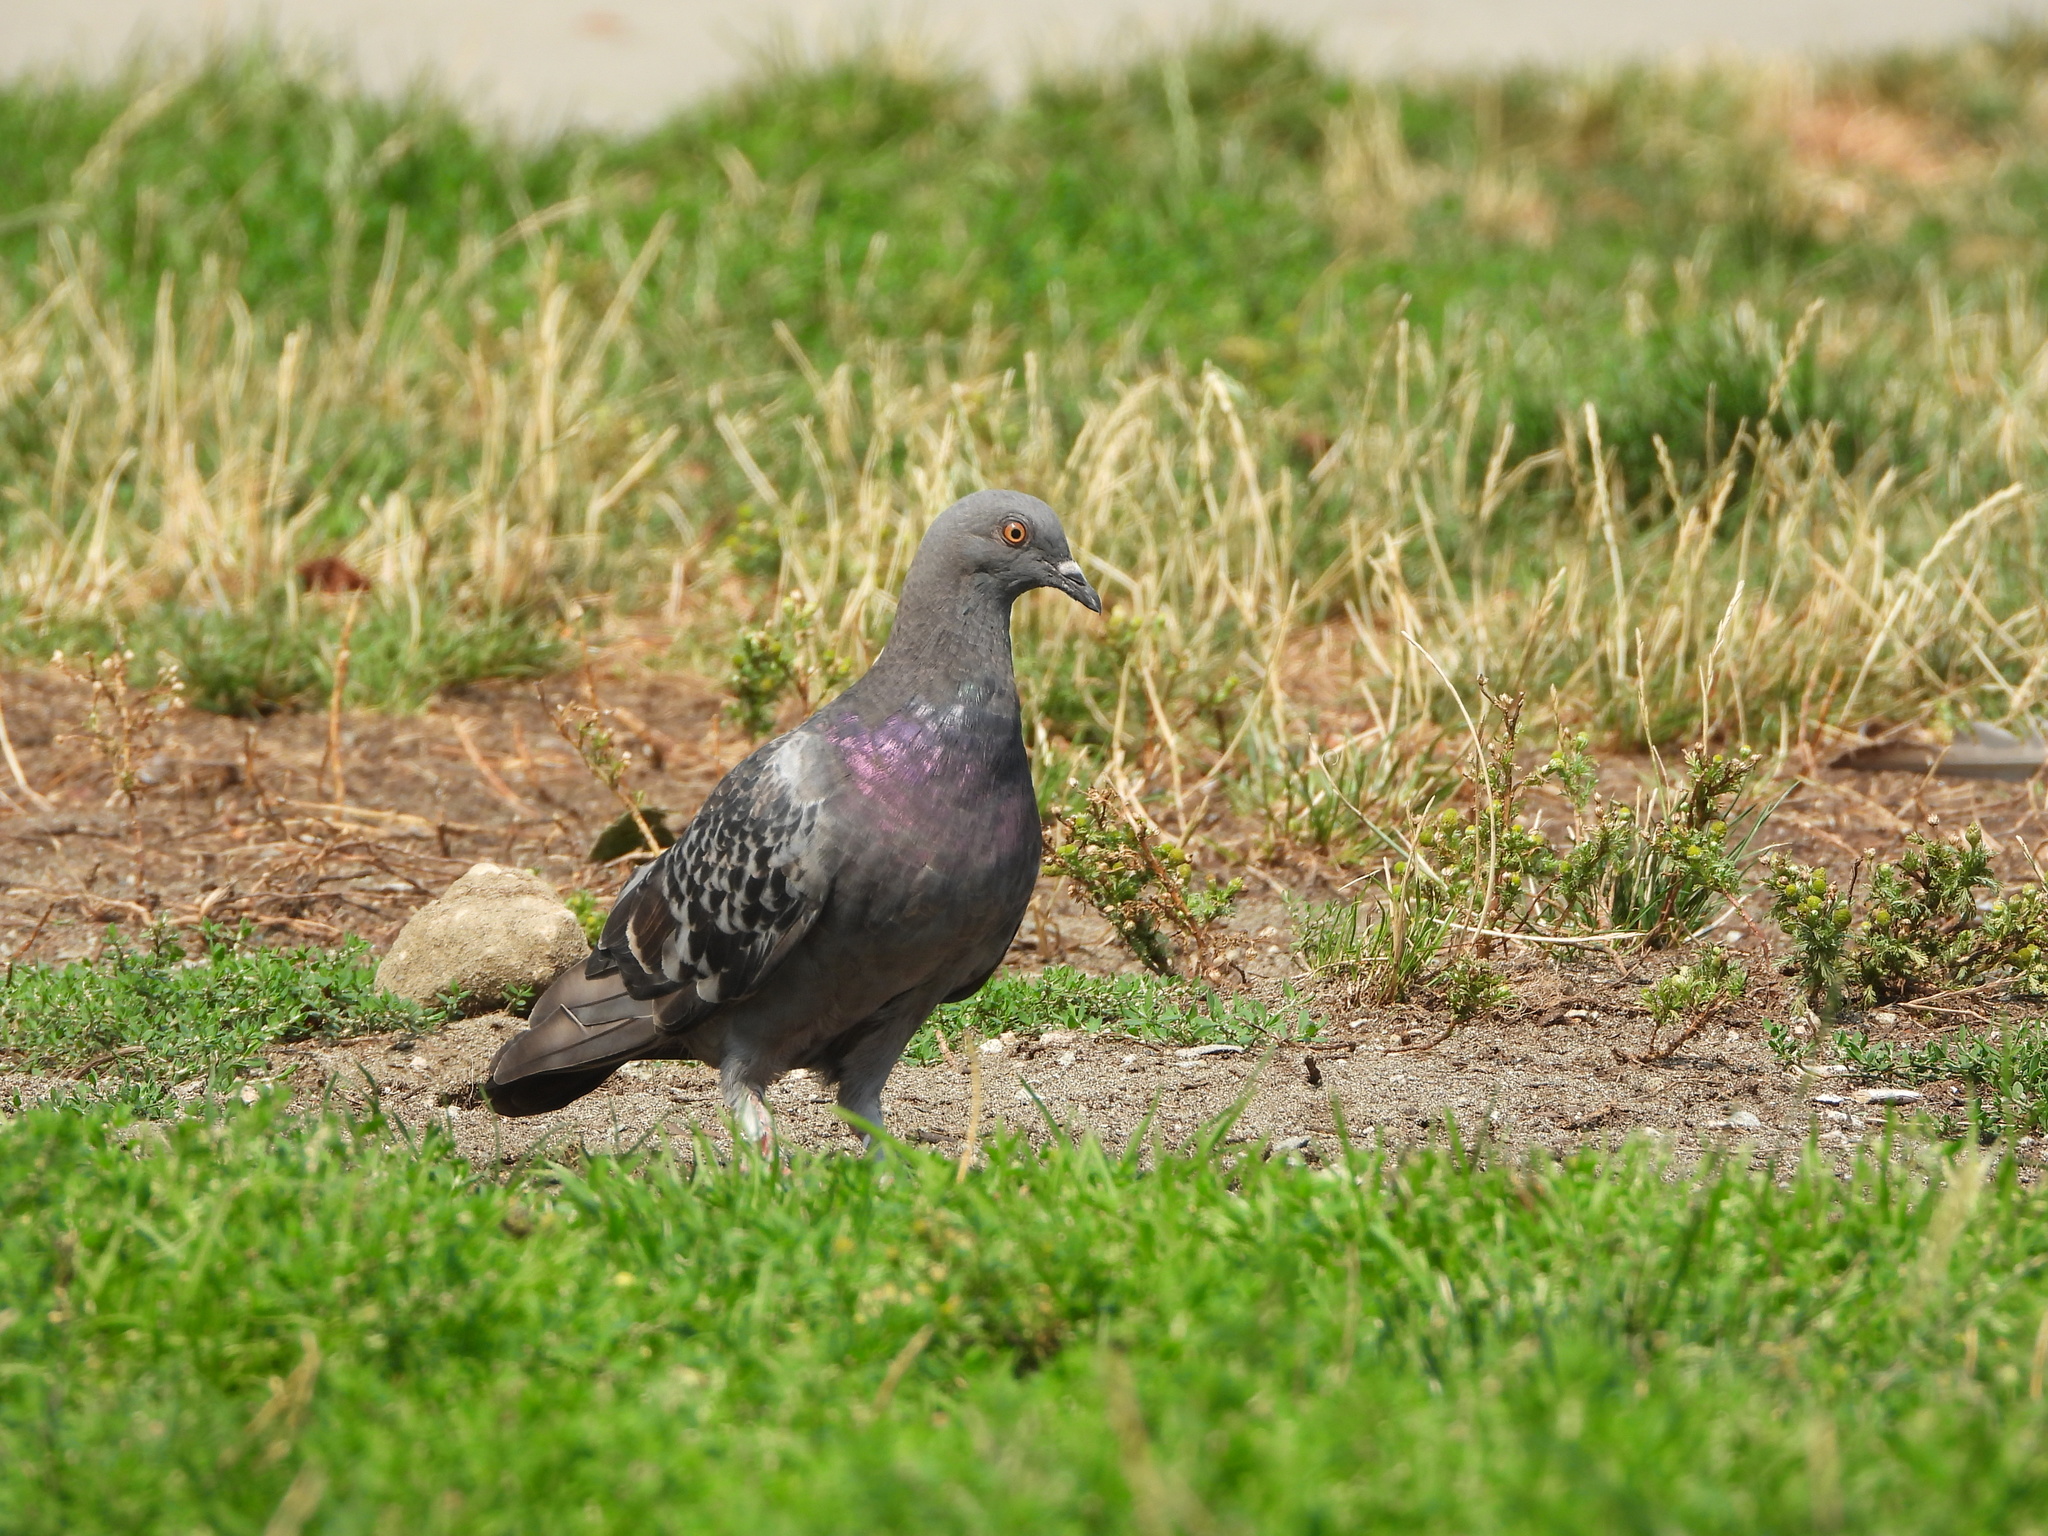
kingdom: Animalia
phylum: Chordata
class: Aves
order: Columbiformes
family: Columbidae
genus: Columba
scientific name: Columba livia
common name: Rock pigeon
